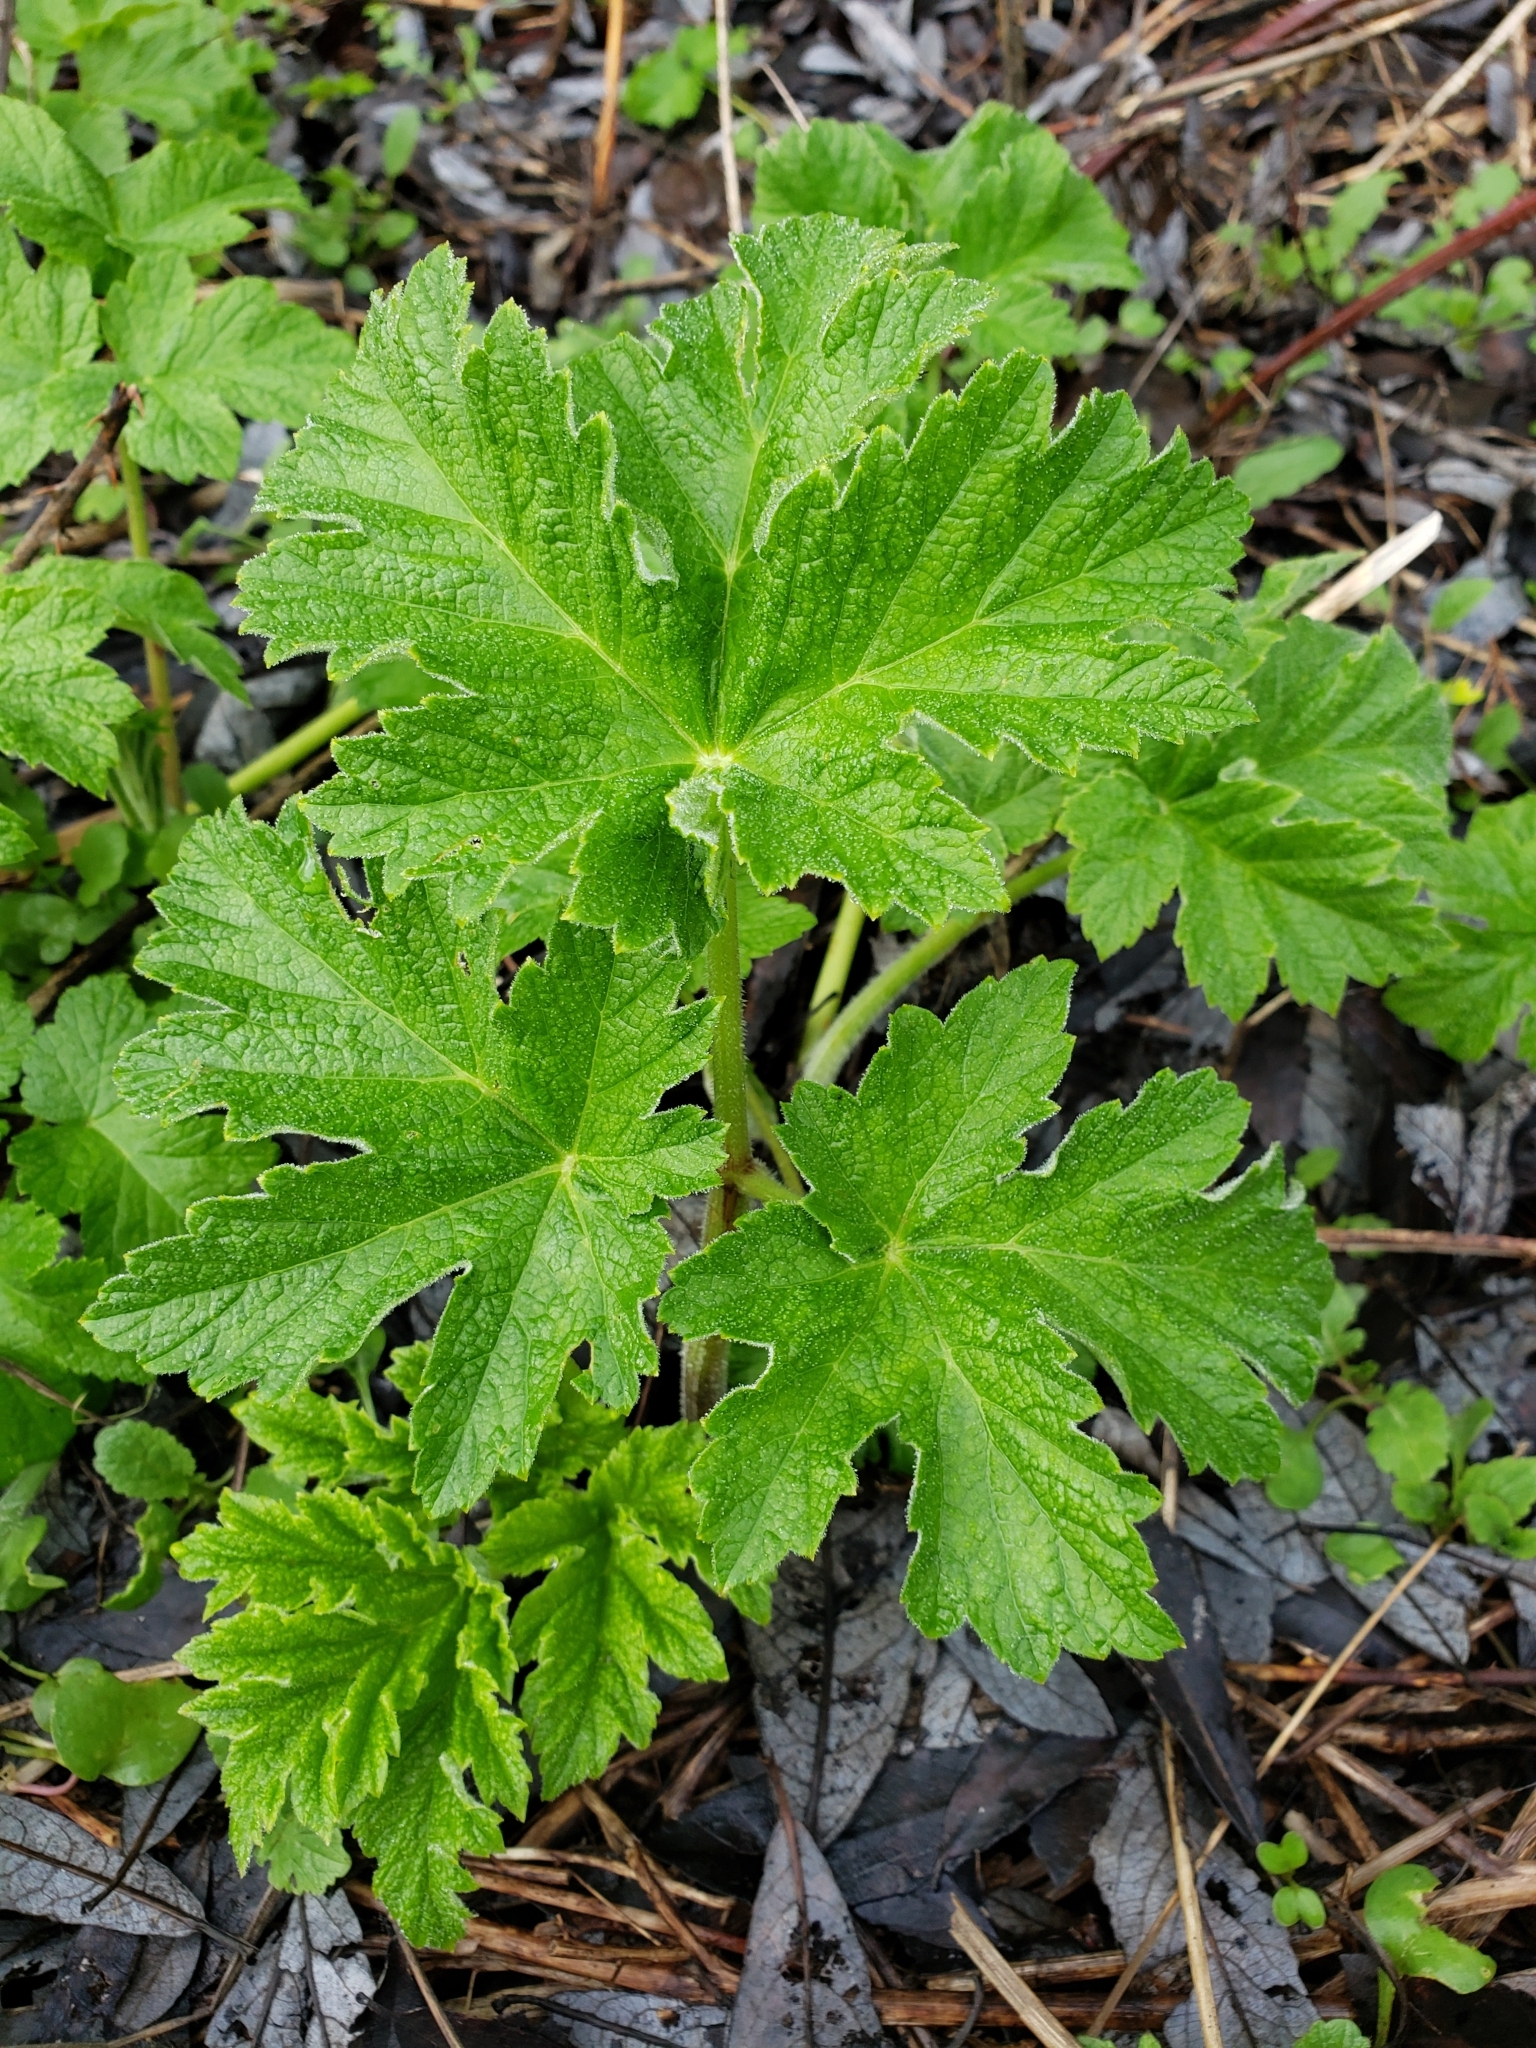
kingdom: Plantae
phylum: Tracheophyta
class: Magnoliopsida
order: Apiales
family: Apiaceae
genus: Heracleum
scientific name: Heracleum maximum
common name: American cow parsnip
